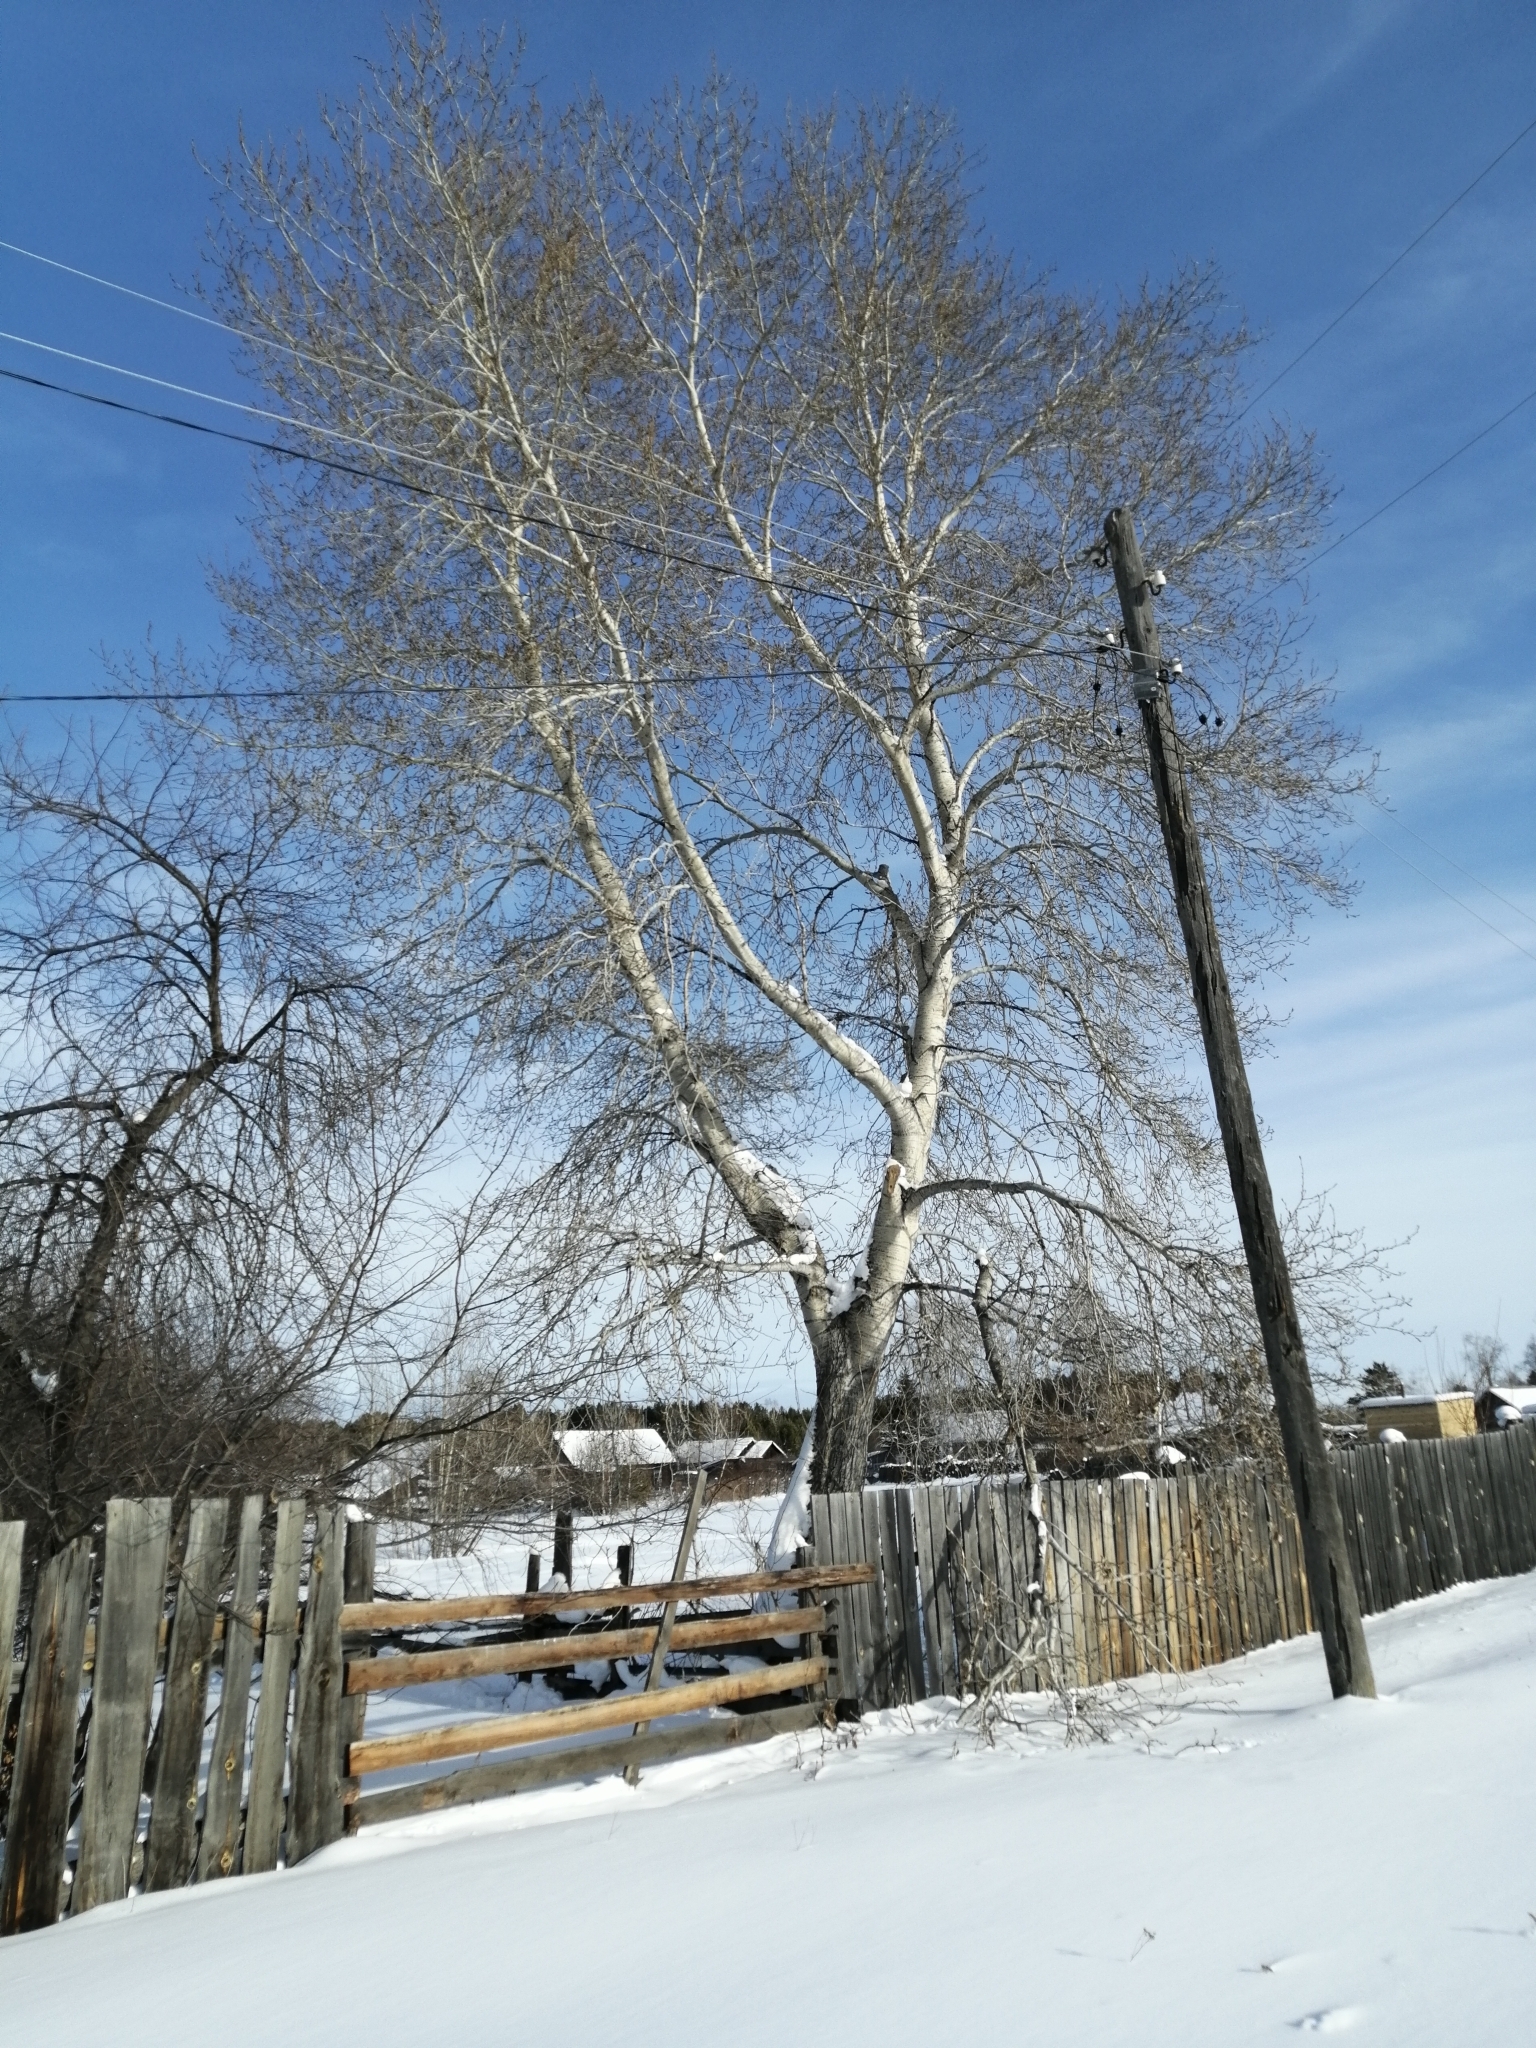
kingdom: Plantae
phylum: Tracheophyta
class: Magnoliopsida
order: Malpighiales
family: Salicaceae
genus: Populus
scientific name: Populus tremula
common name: European aspen
